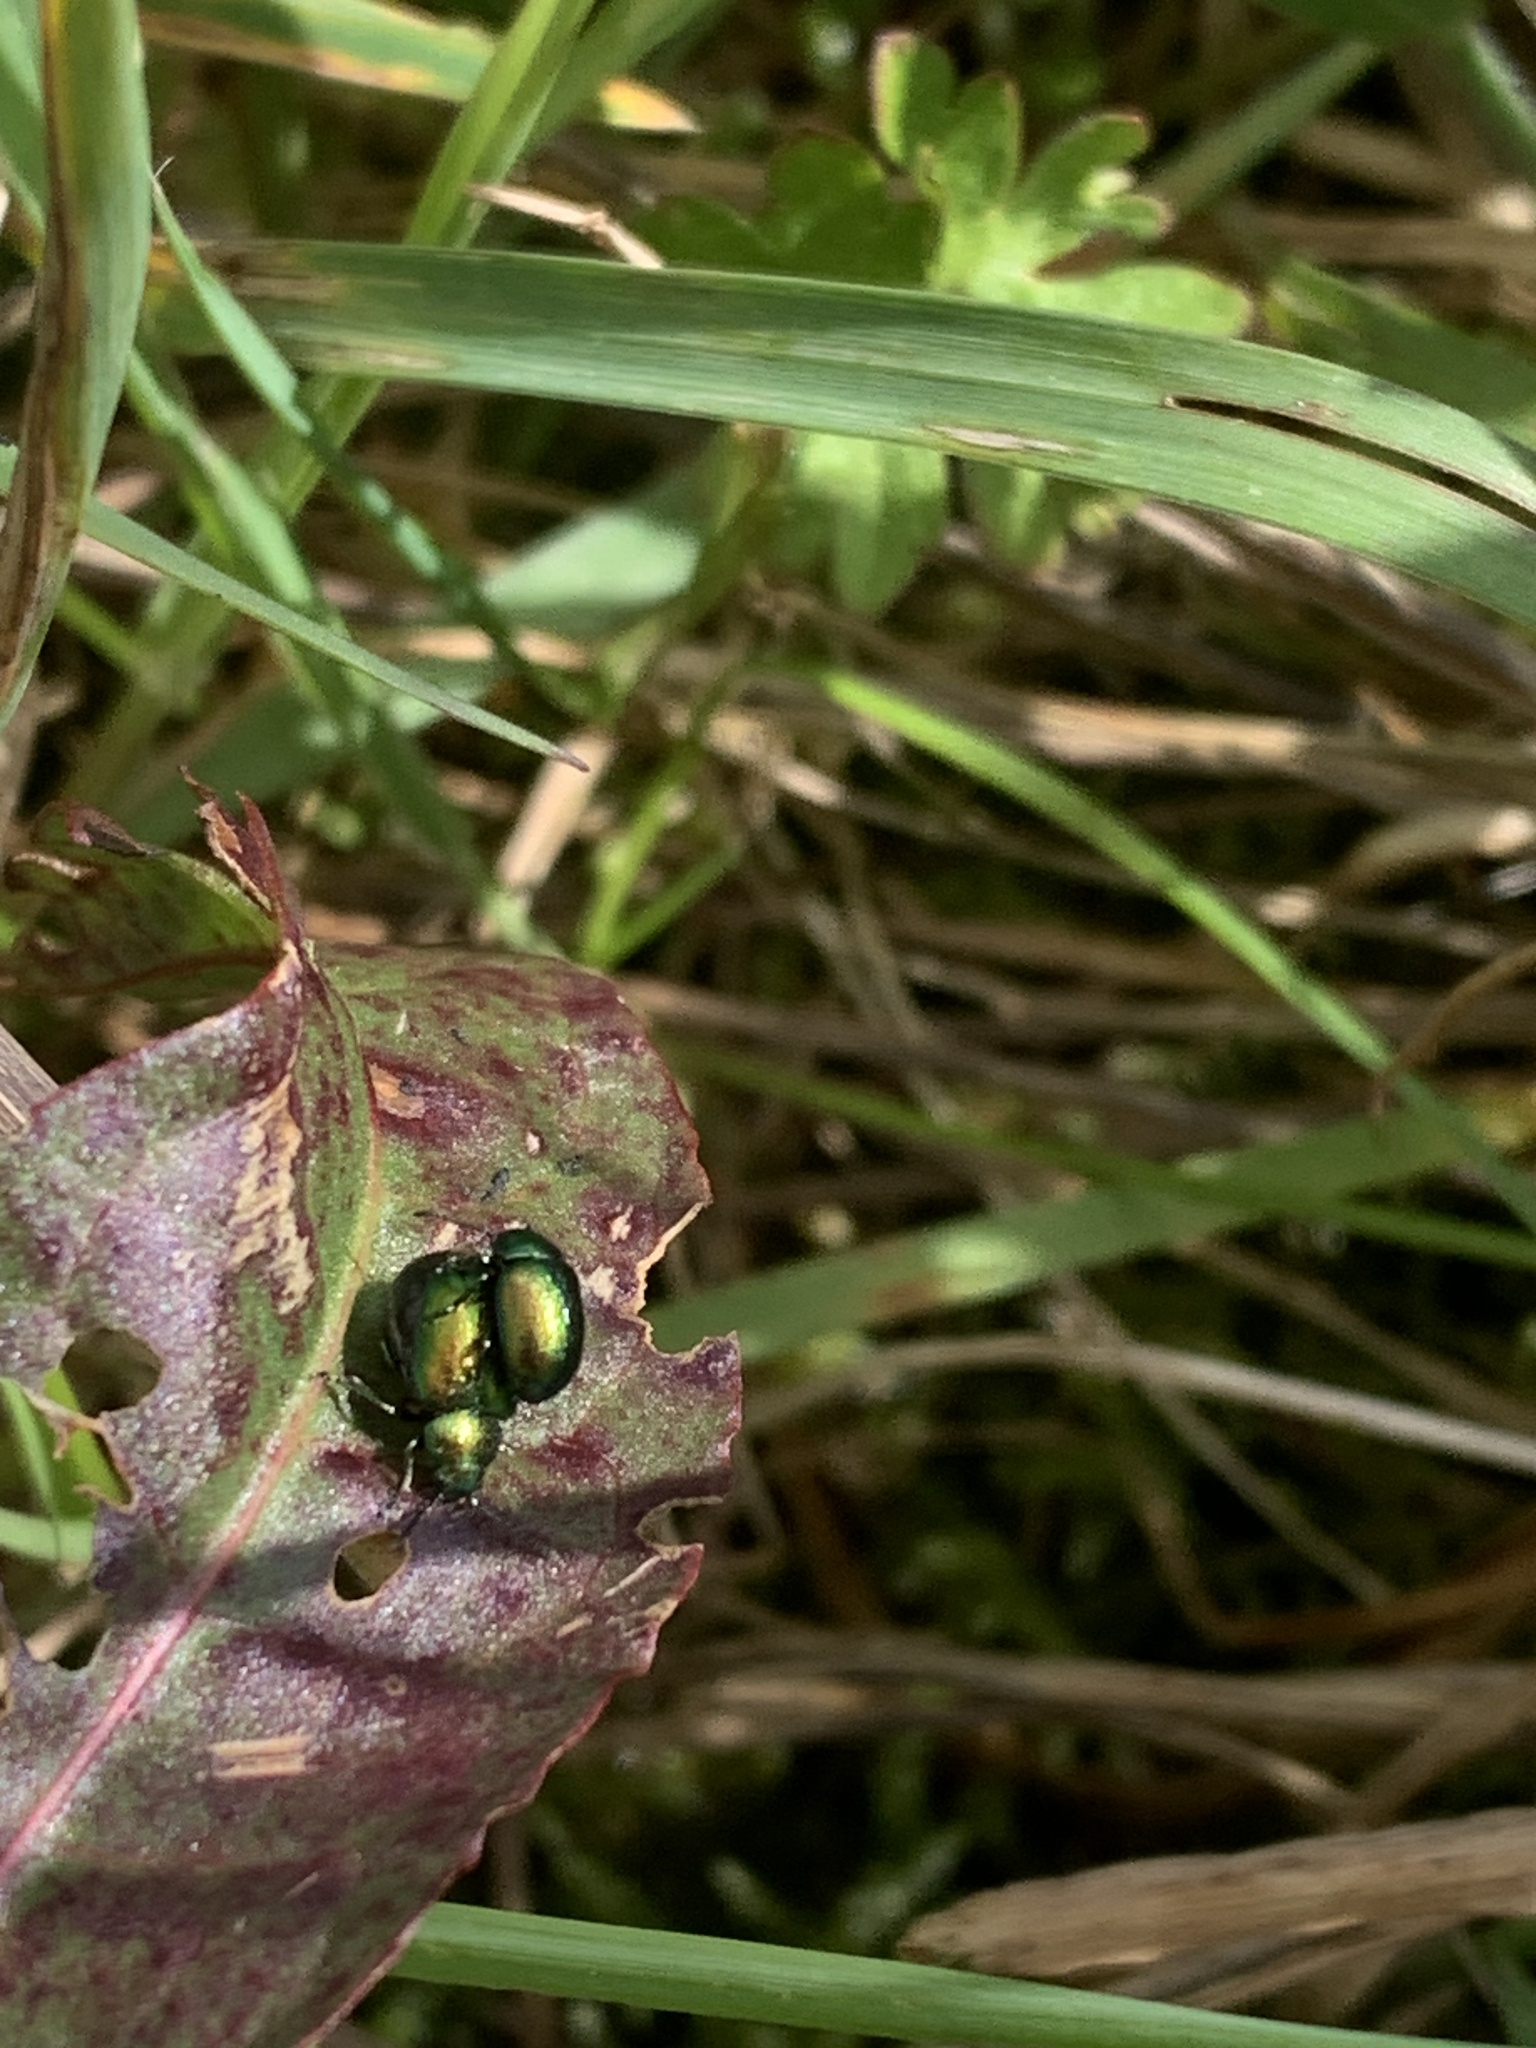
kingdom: Animalia
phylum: Arthropoda
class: Insecta
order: Coleoptera
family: Chrysomelidae
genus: Gastrophysa
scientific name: Gastrophysa viridula
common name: Green dock beetle
